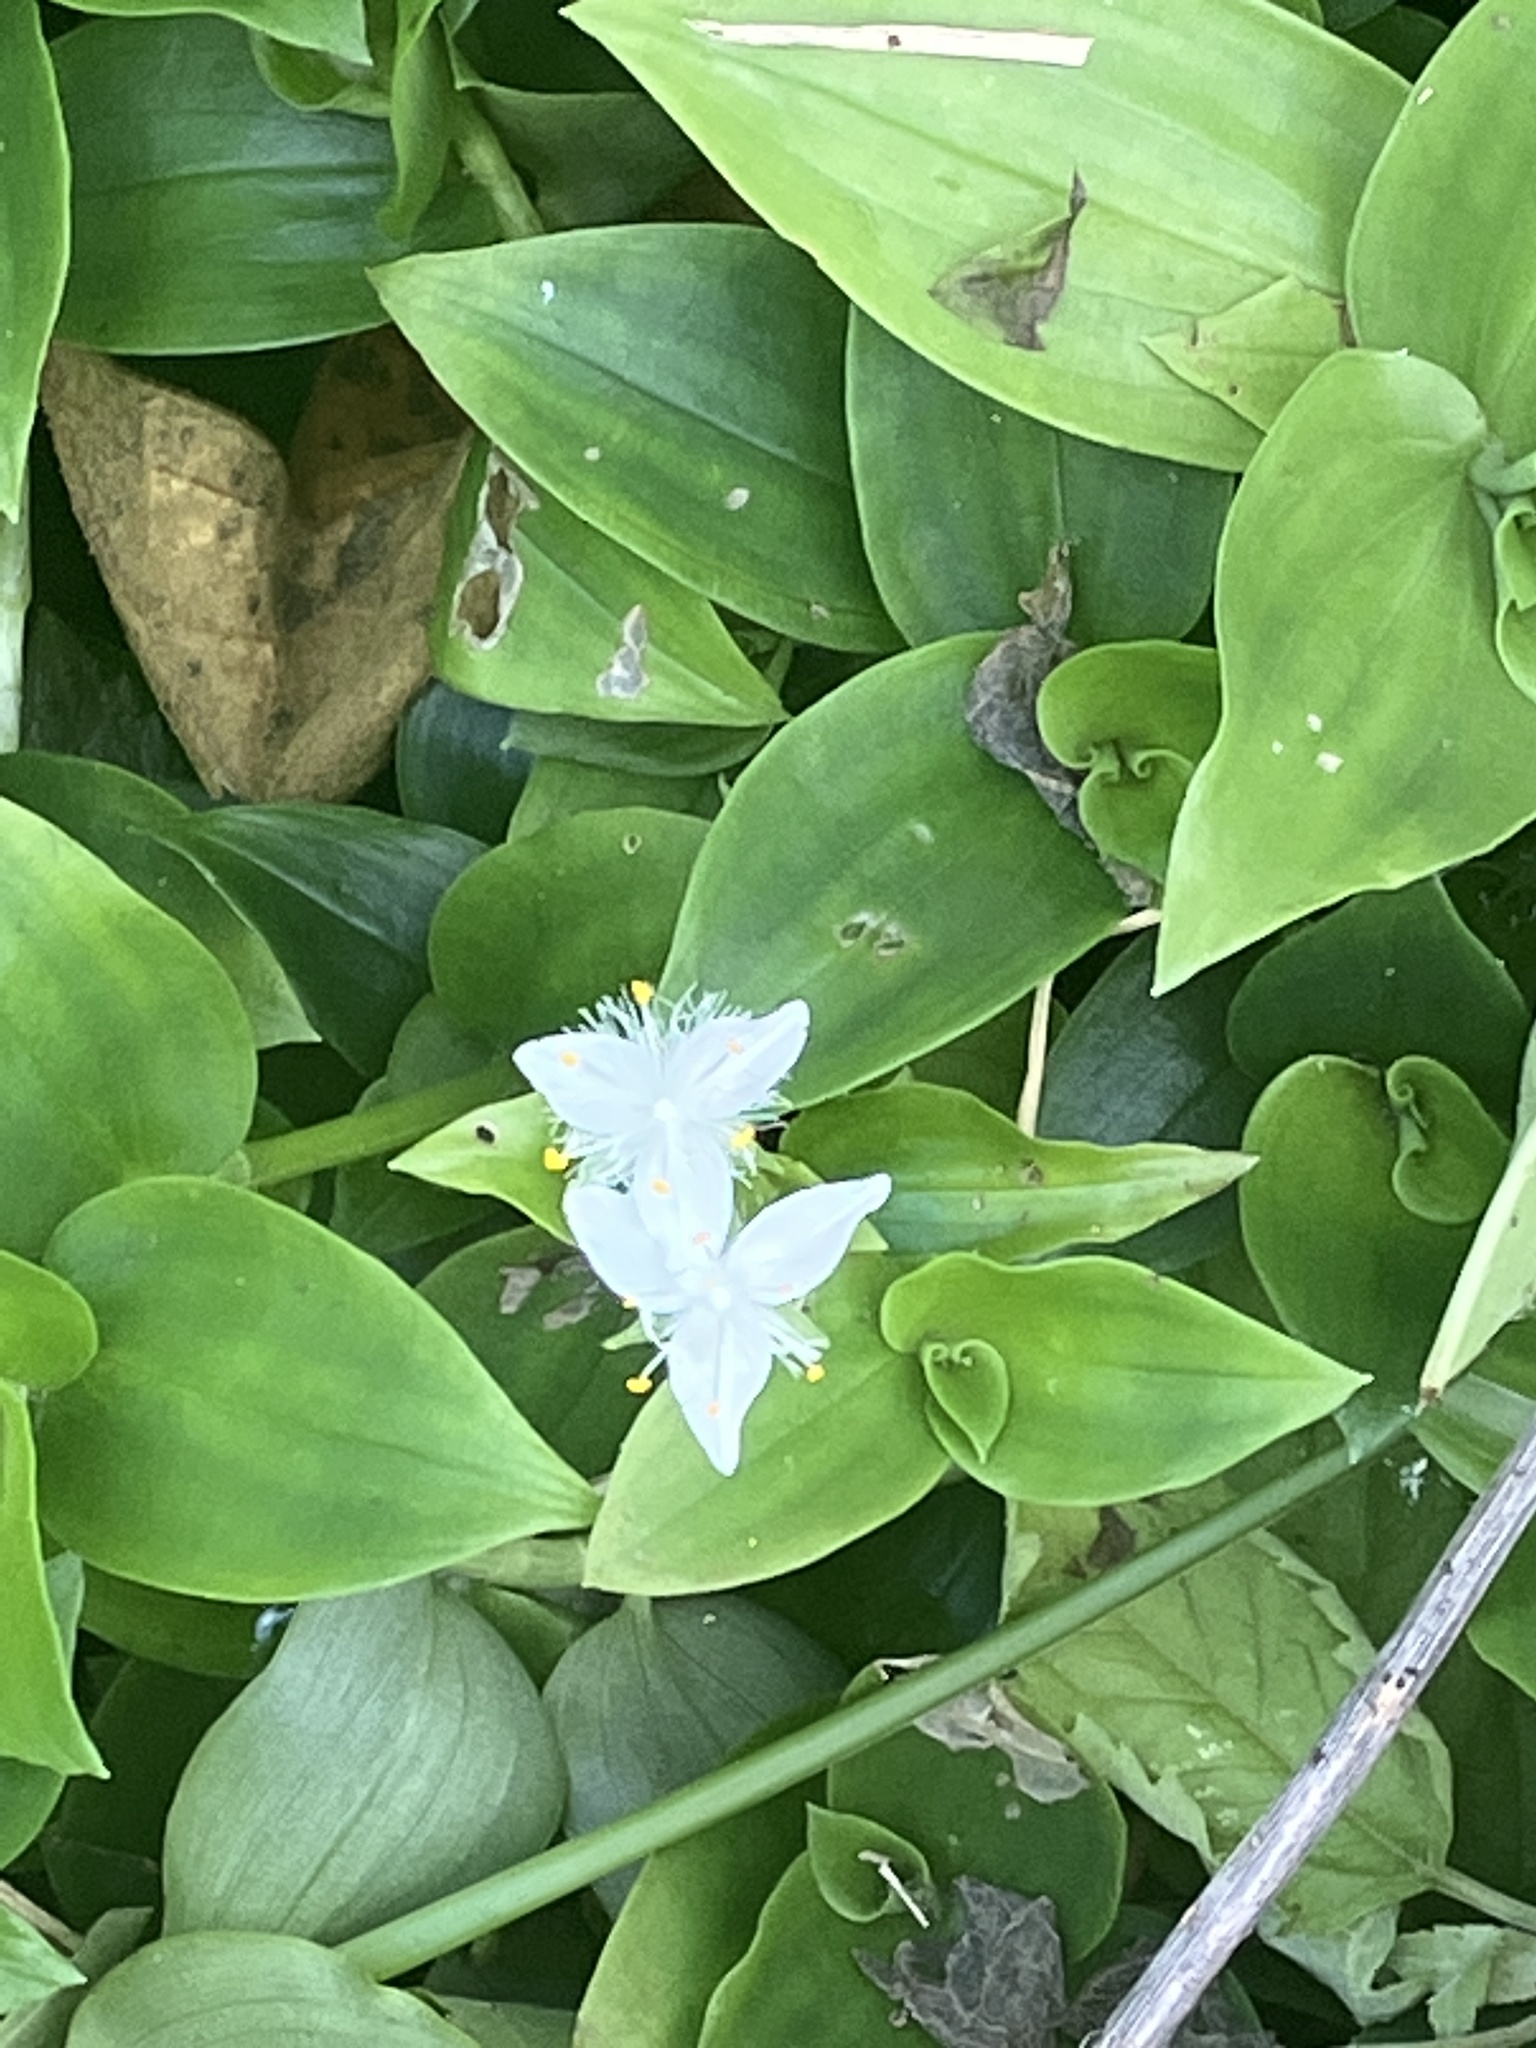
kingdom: Plantae
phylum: Tracheophyta
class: Liliopsida
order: Commelinales
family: Commelinaceae
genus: Tradescantia
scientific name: Tradescantia fluminensis
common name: Wandering-jew
